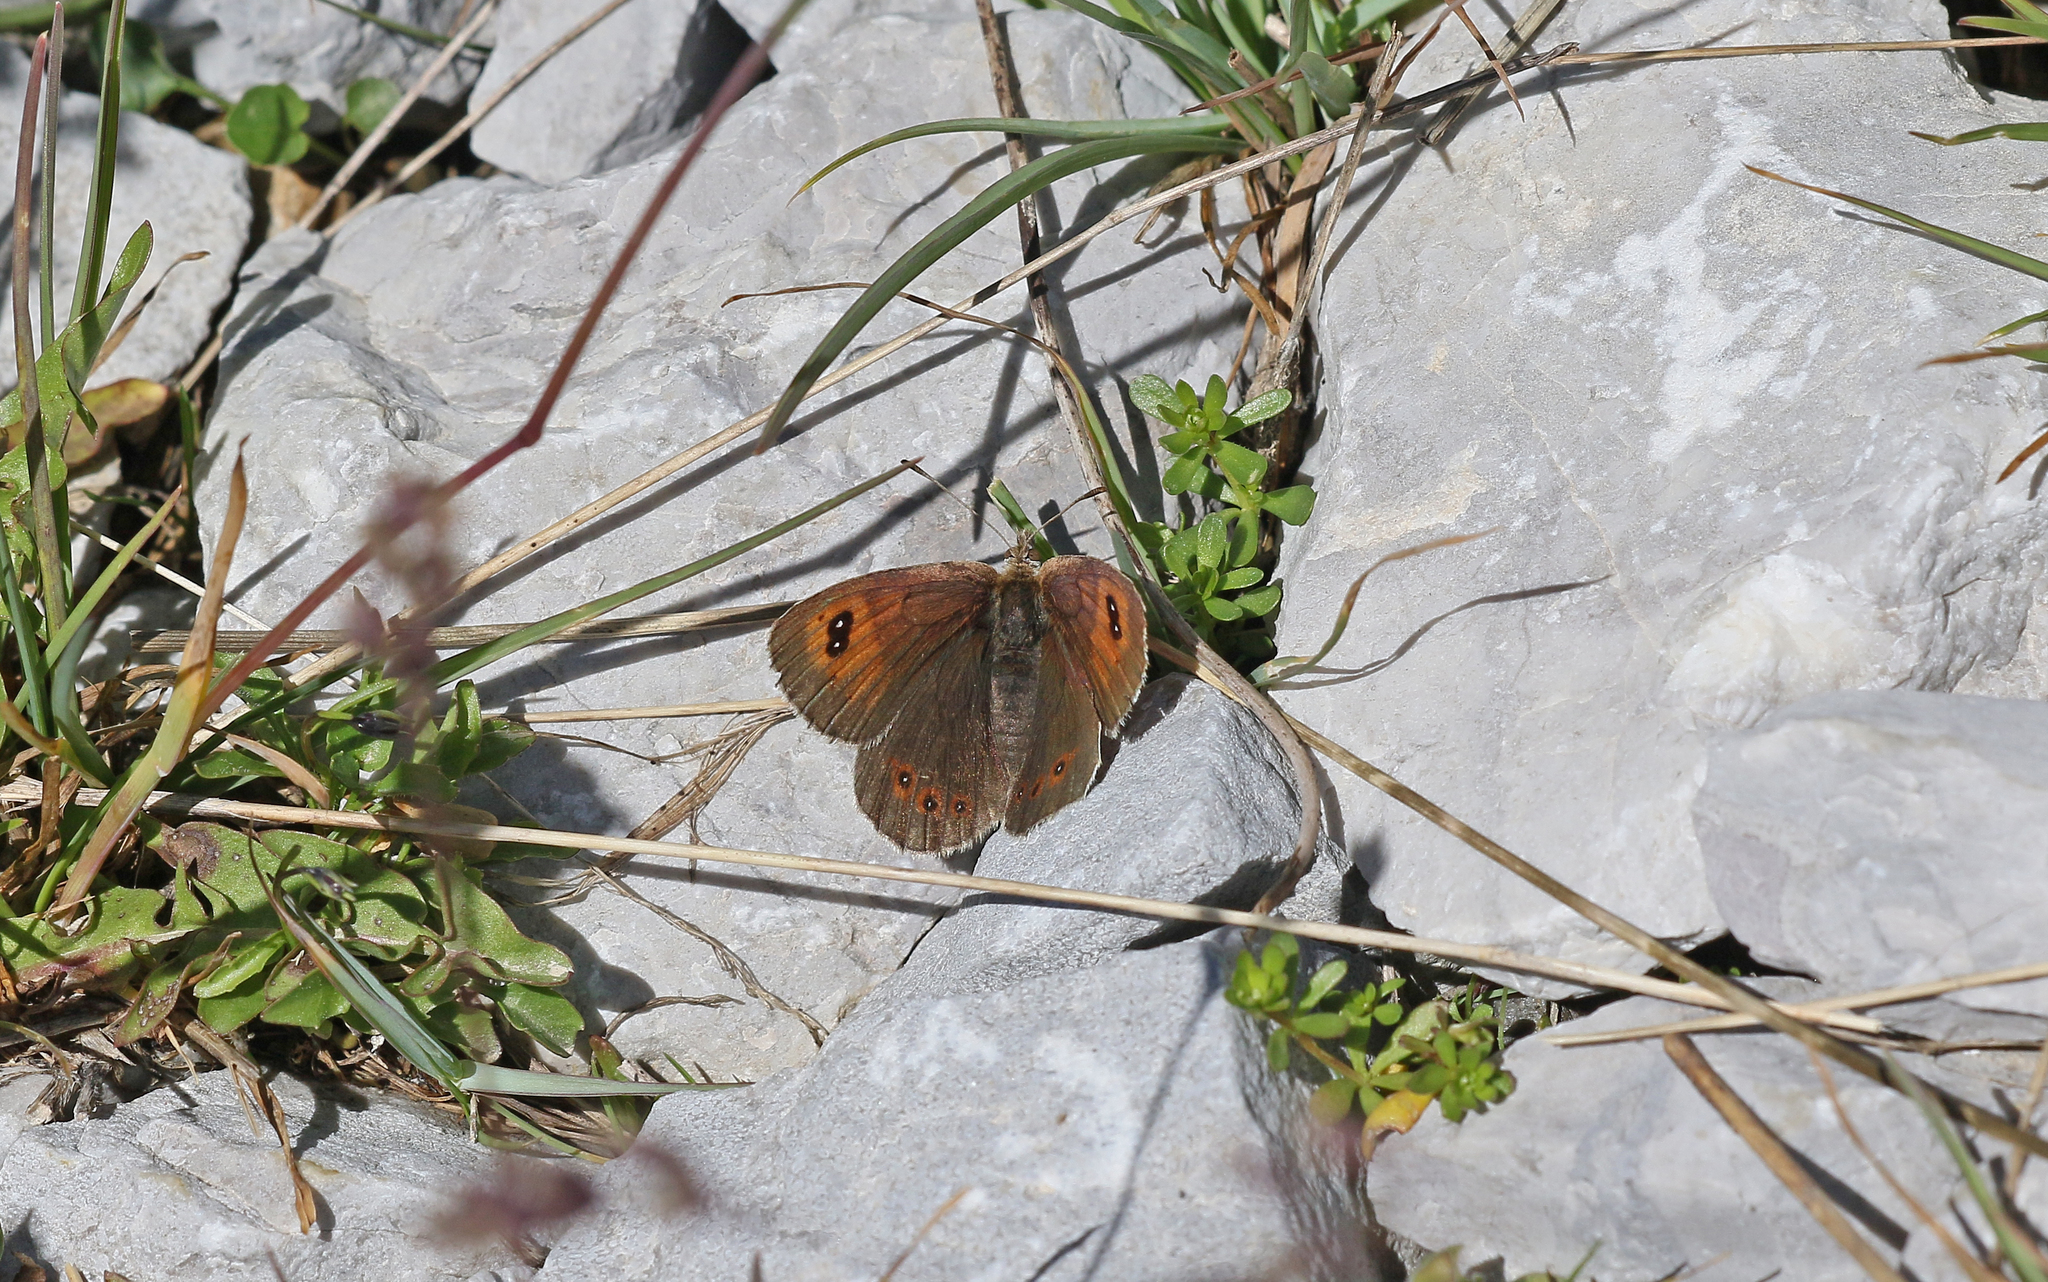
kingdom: Animalia
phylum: Arthropoda
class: Insecta
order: Lepidoptera
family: Nymphalidae
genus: Erebia
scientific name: Erebia cassioides
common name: Common brassy ringlet
